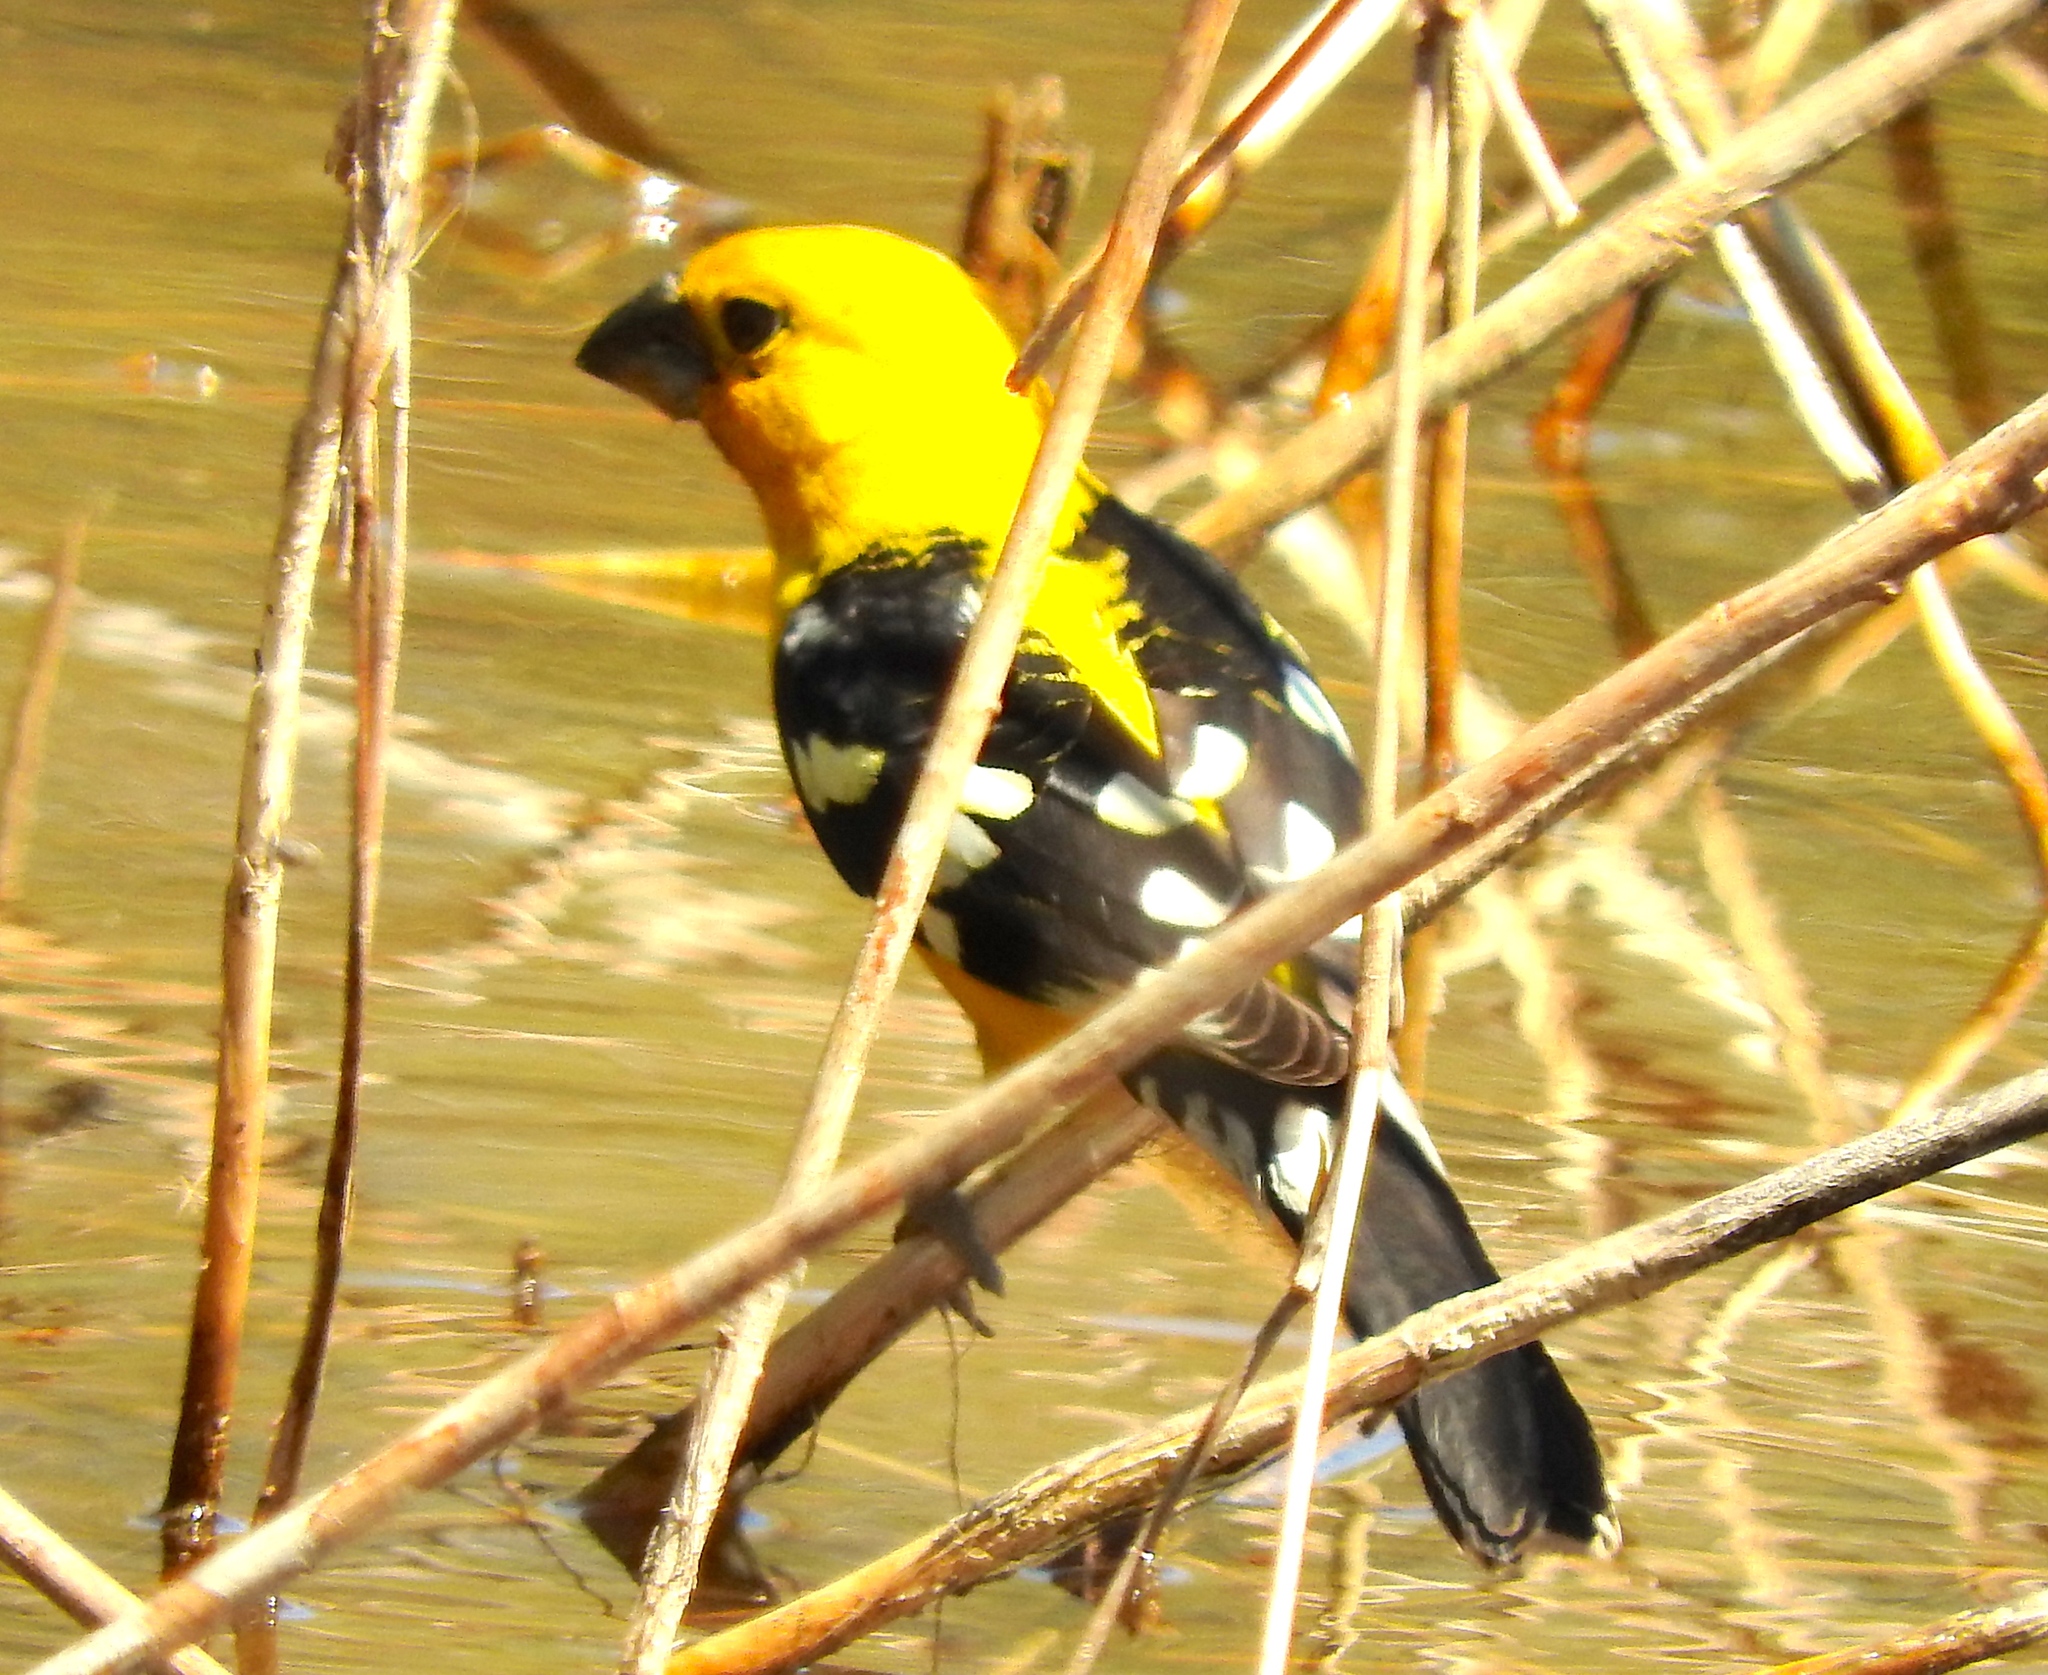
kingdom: Animalia
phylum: Chordata
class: Aves
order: Passeriformes
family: Cardinalidae
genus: Pheucticus
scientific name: Pheucticus chrysopeplus
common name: Yellow grosbeak
